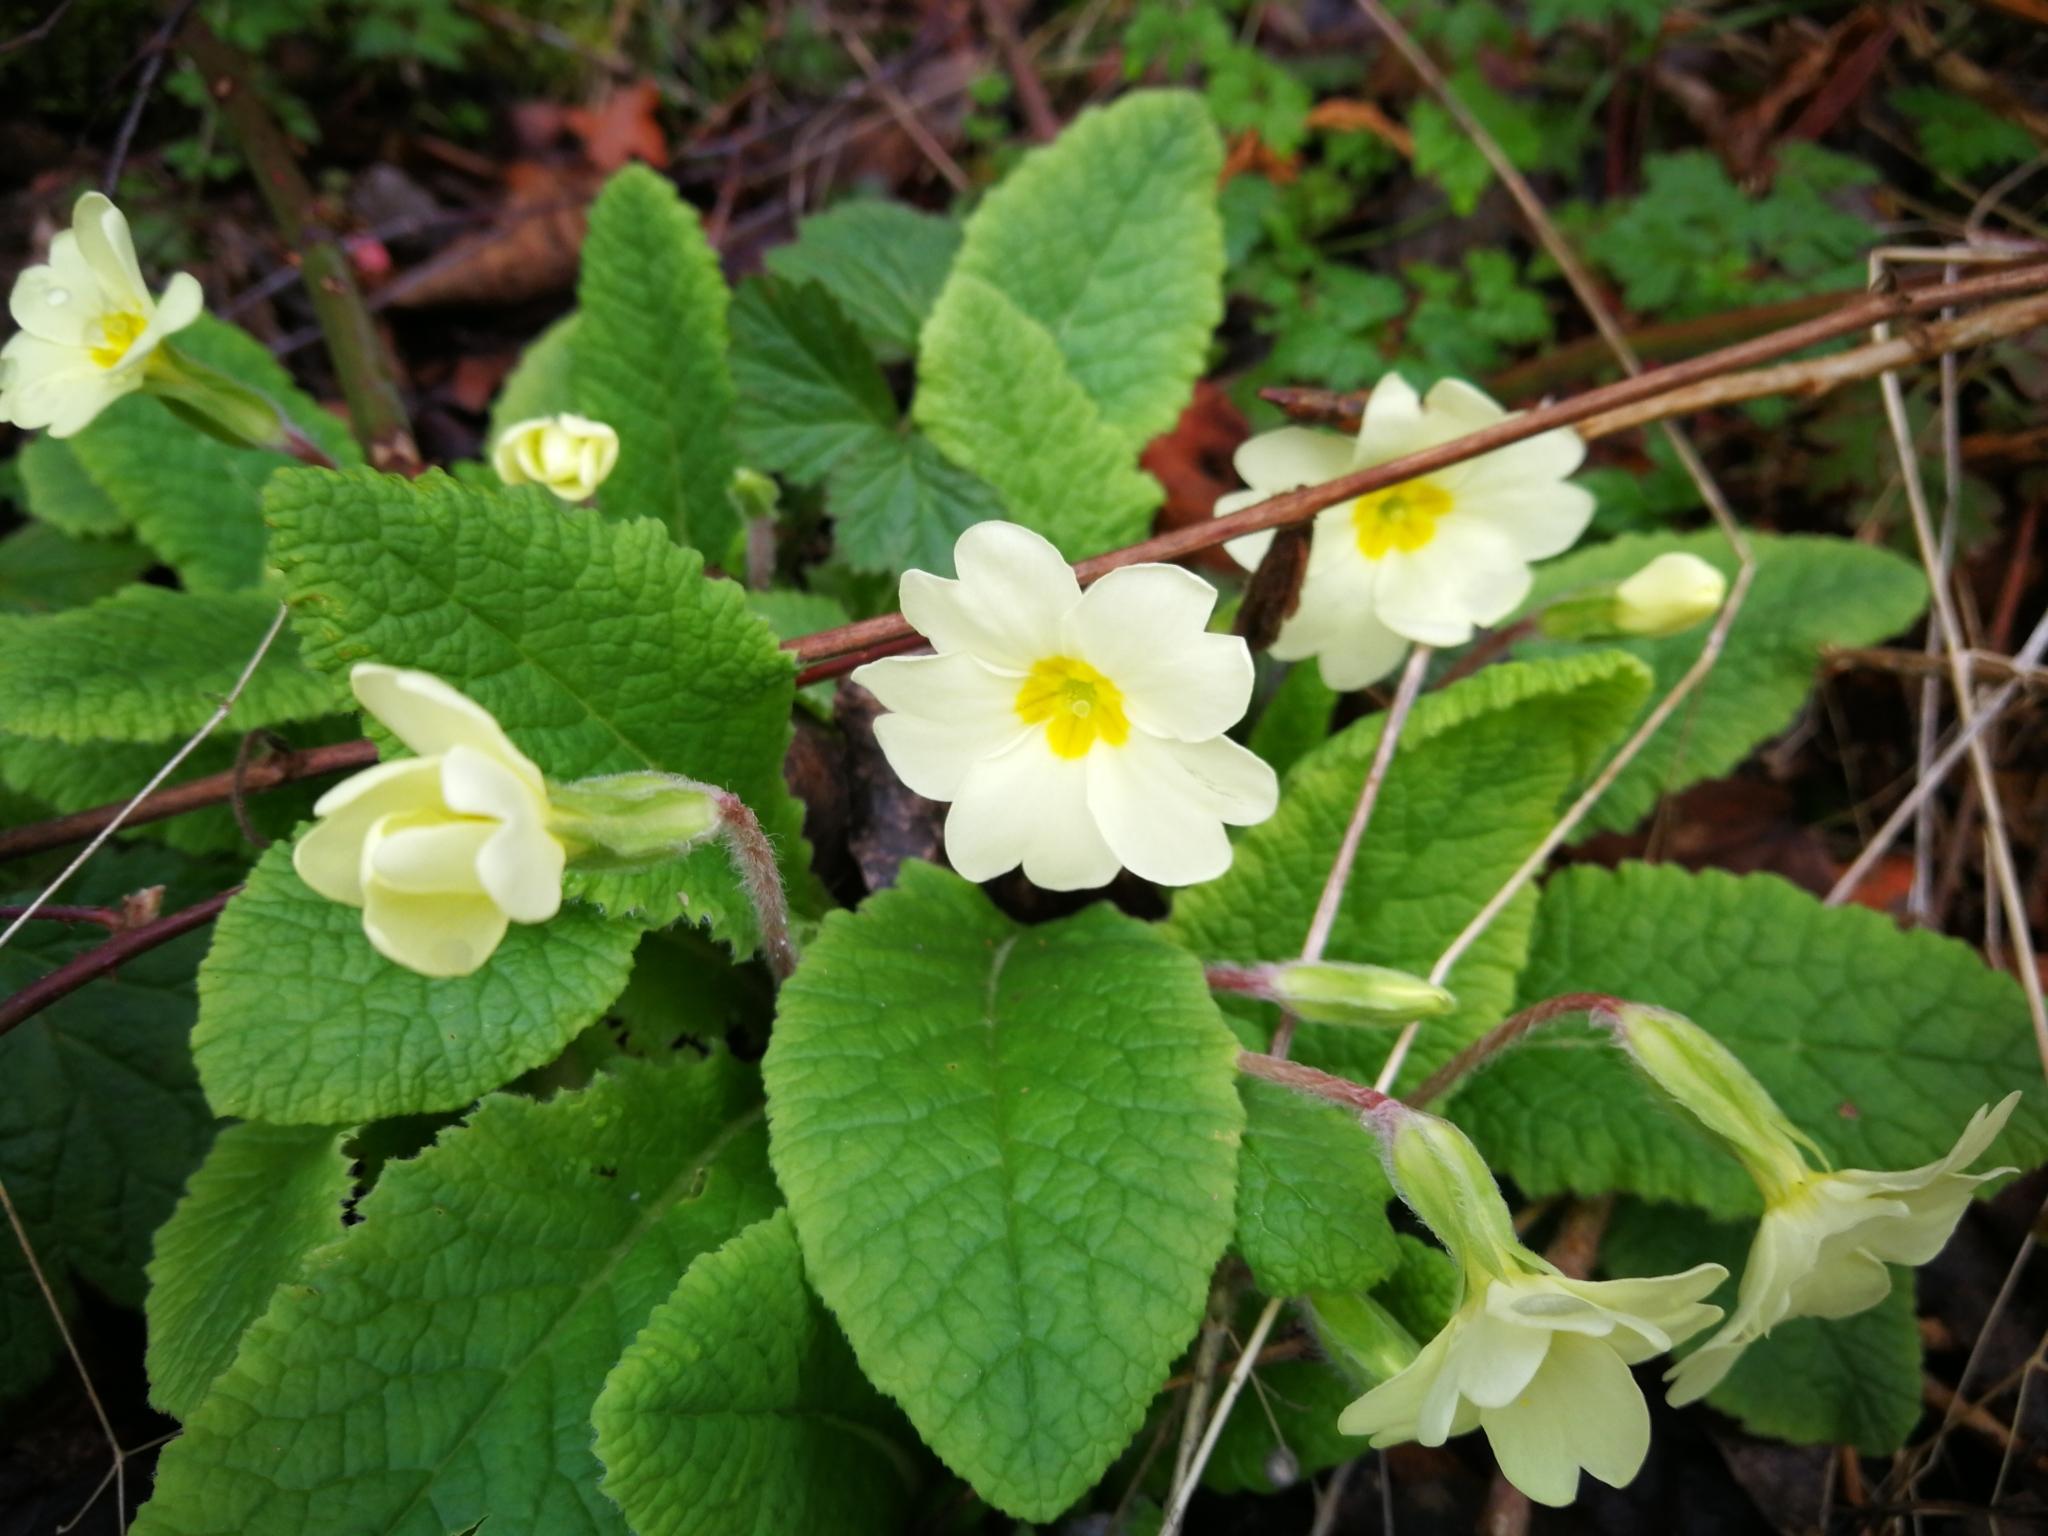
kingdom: Plantae
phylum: Tracheophyta
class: Magnoliopsida
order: Ericales
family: Primulaceae
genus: Primula
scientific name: Primula vulgaris
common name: Primrose
